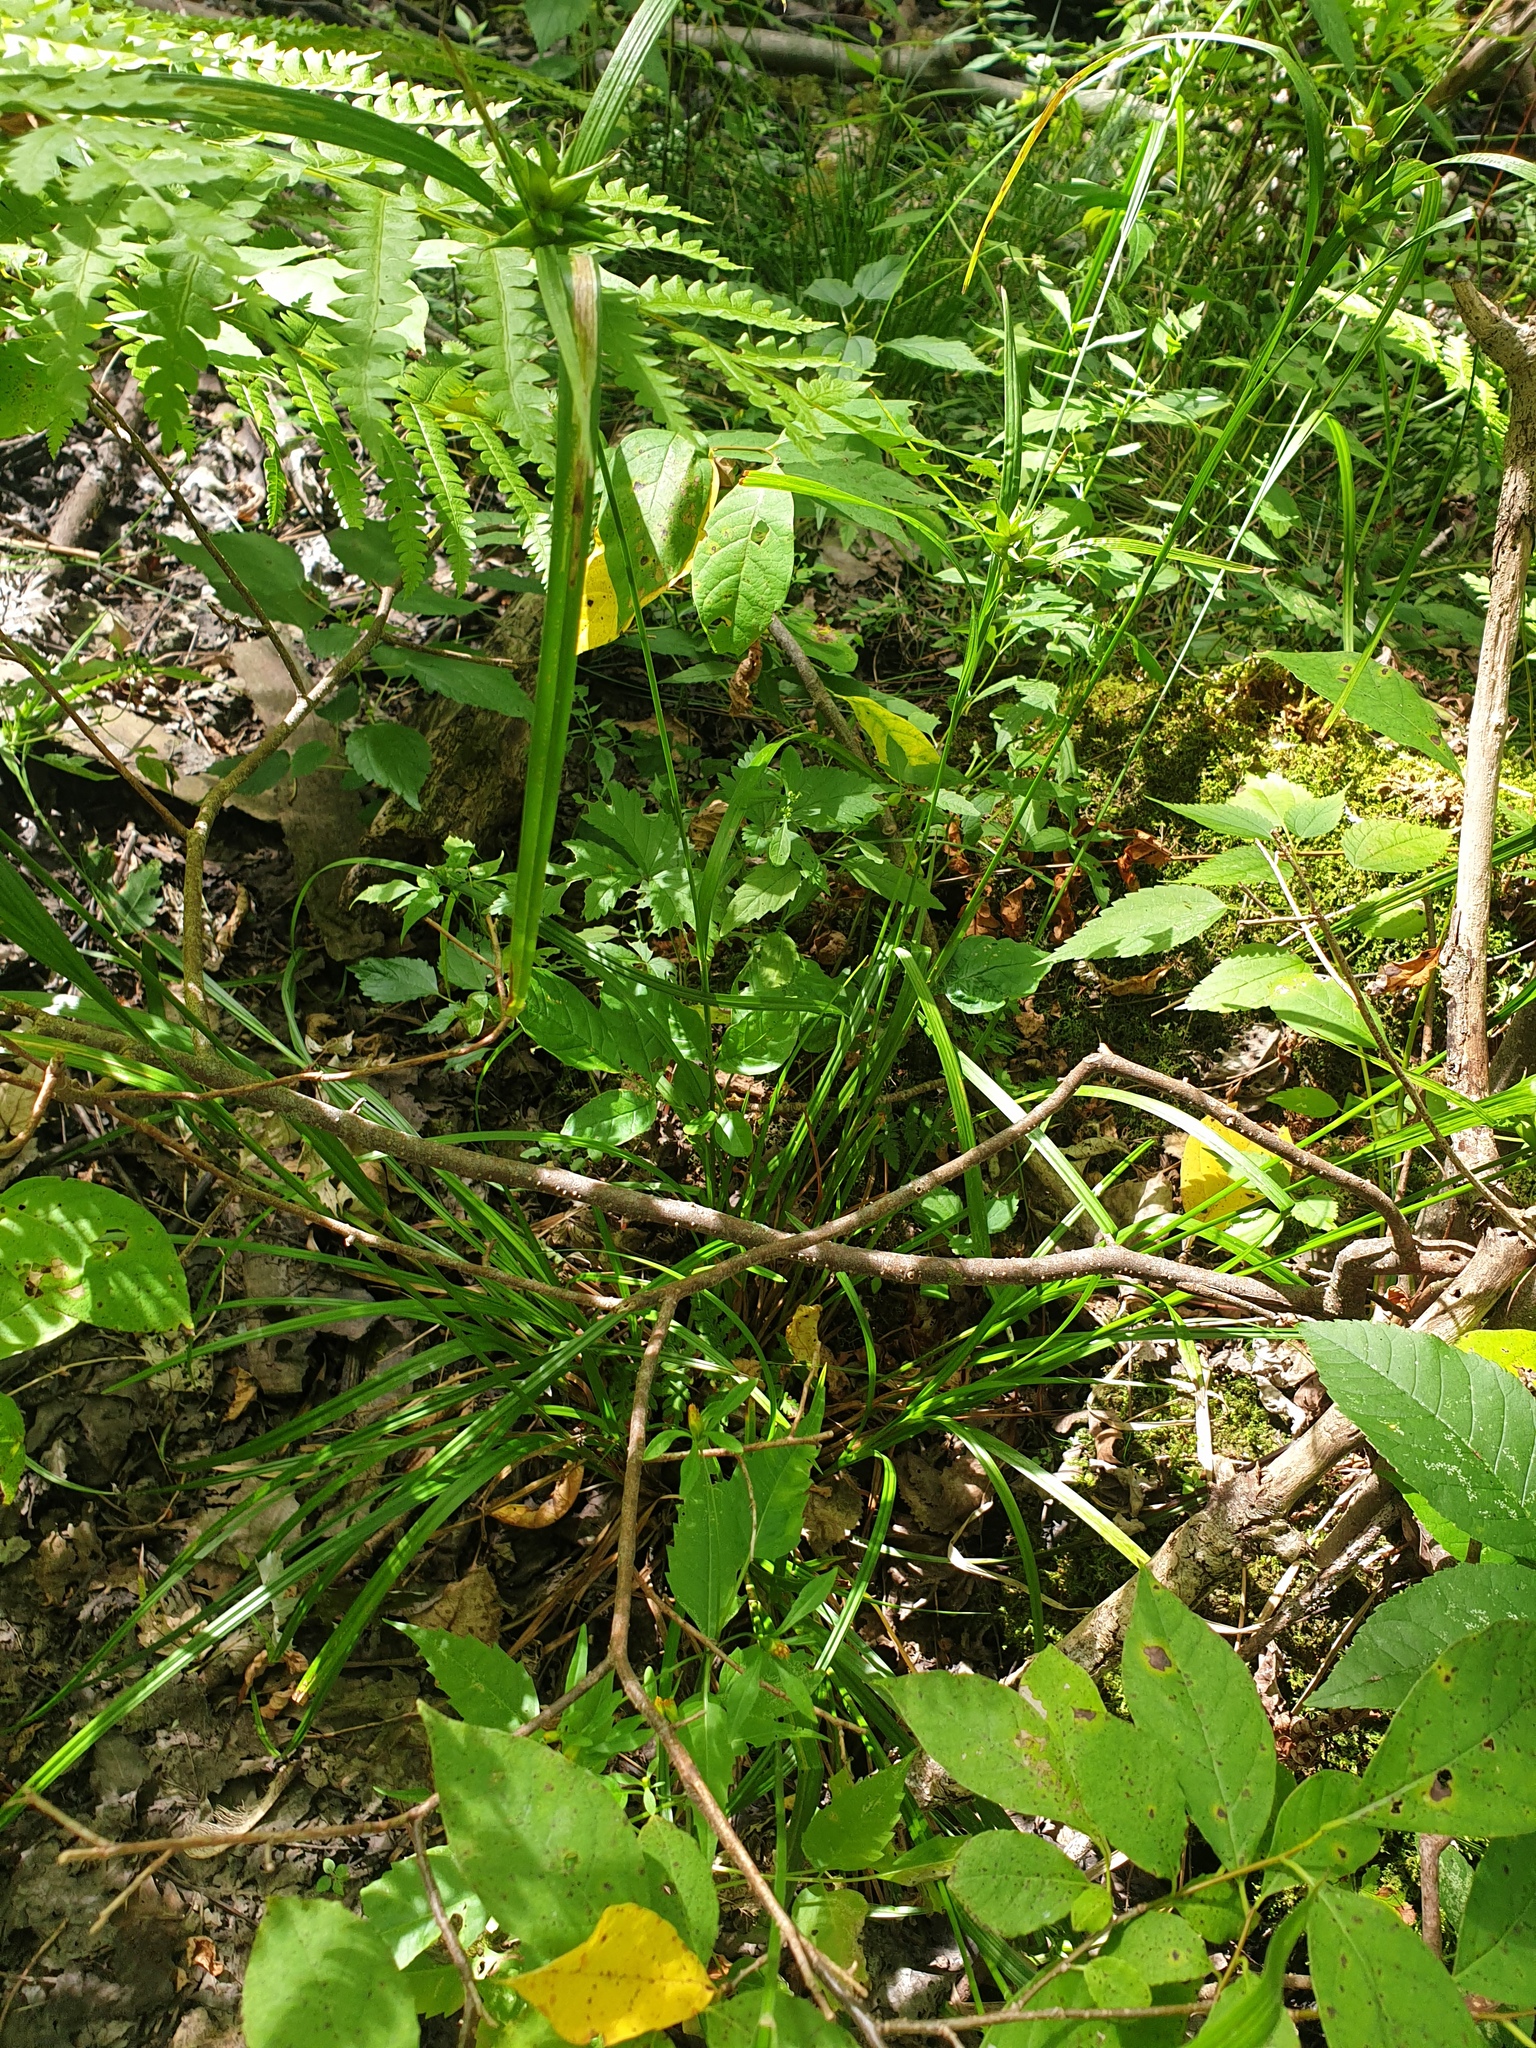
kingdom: Plantae
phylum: Tracheophyta
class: Liliopsida
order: Poales
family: Cyperaceae
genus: Carex
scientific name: Carex intumescens
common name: Greater bladder sedge
